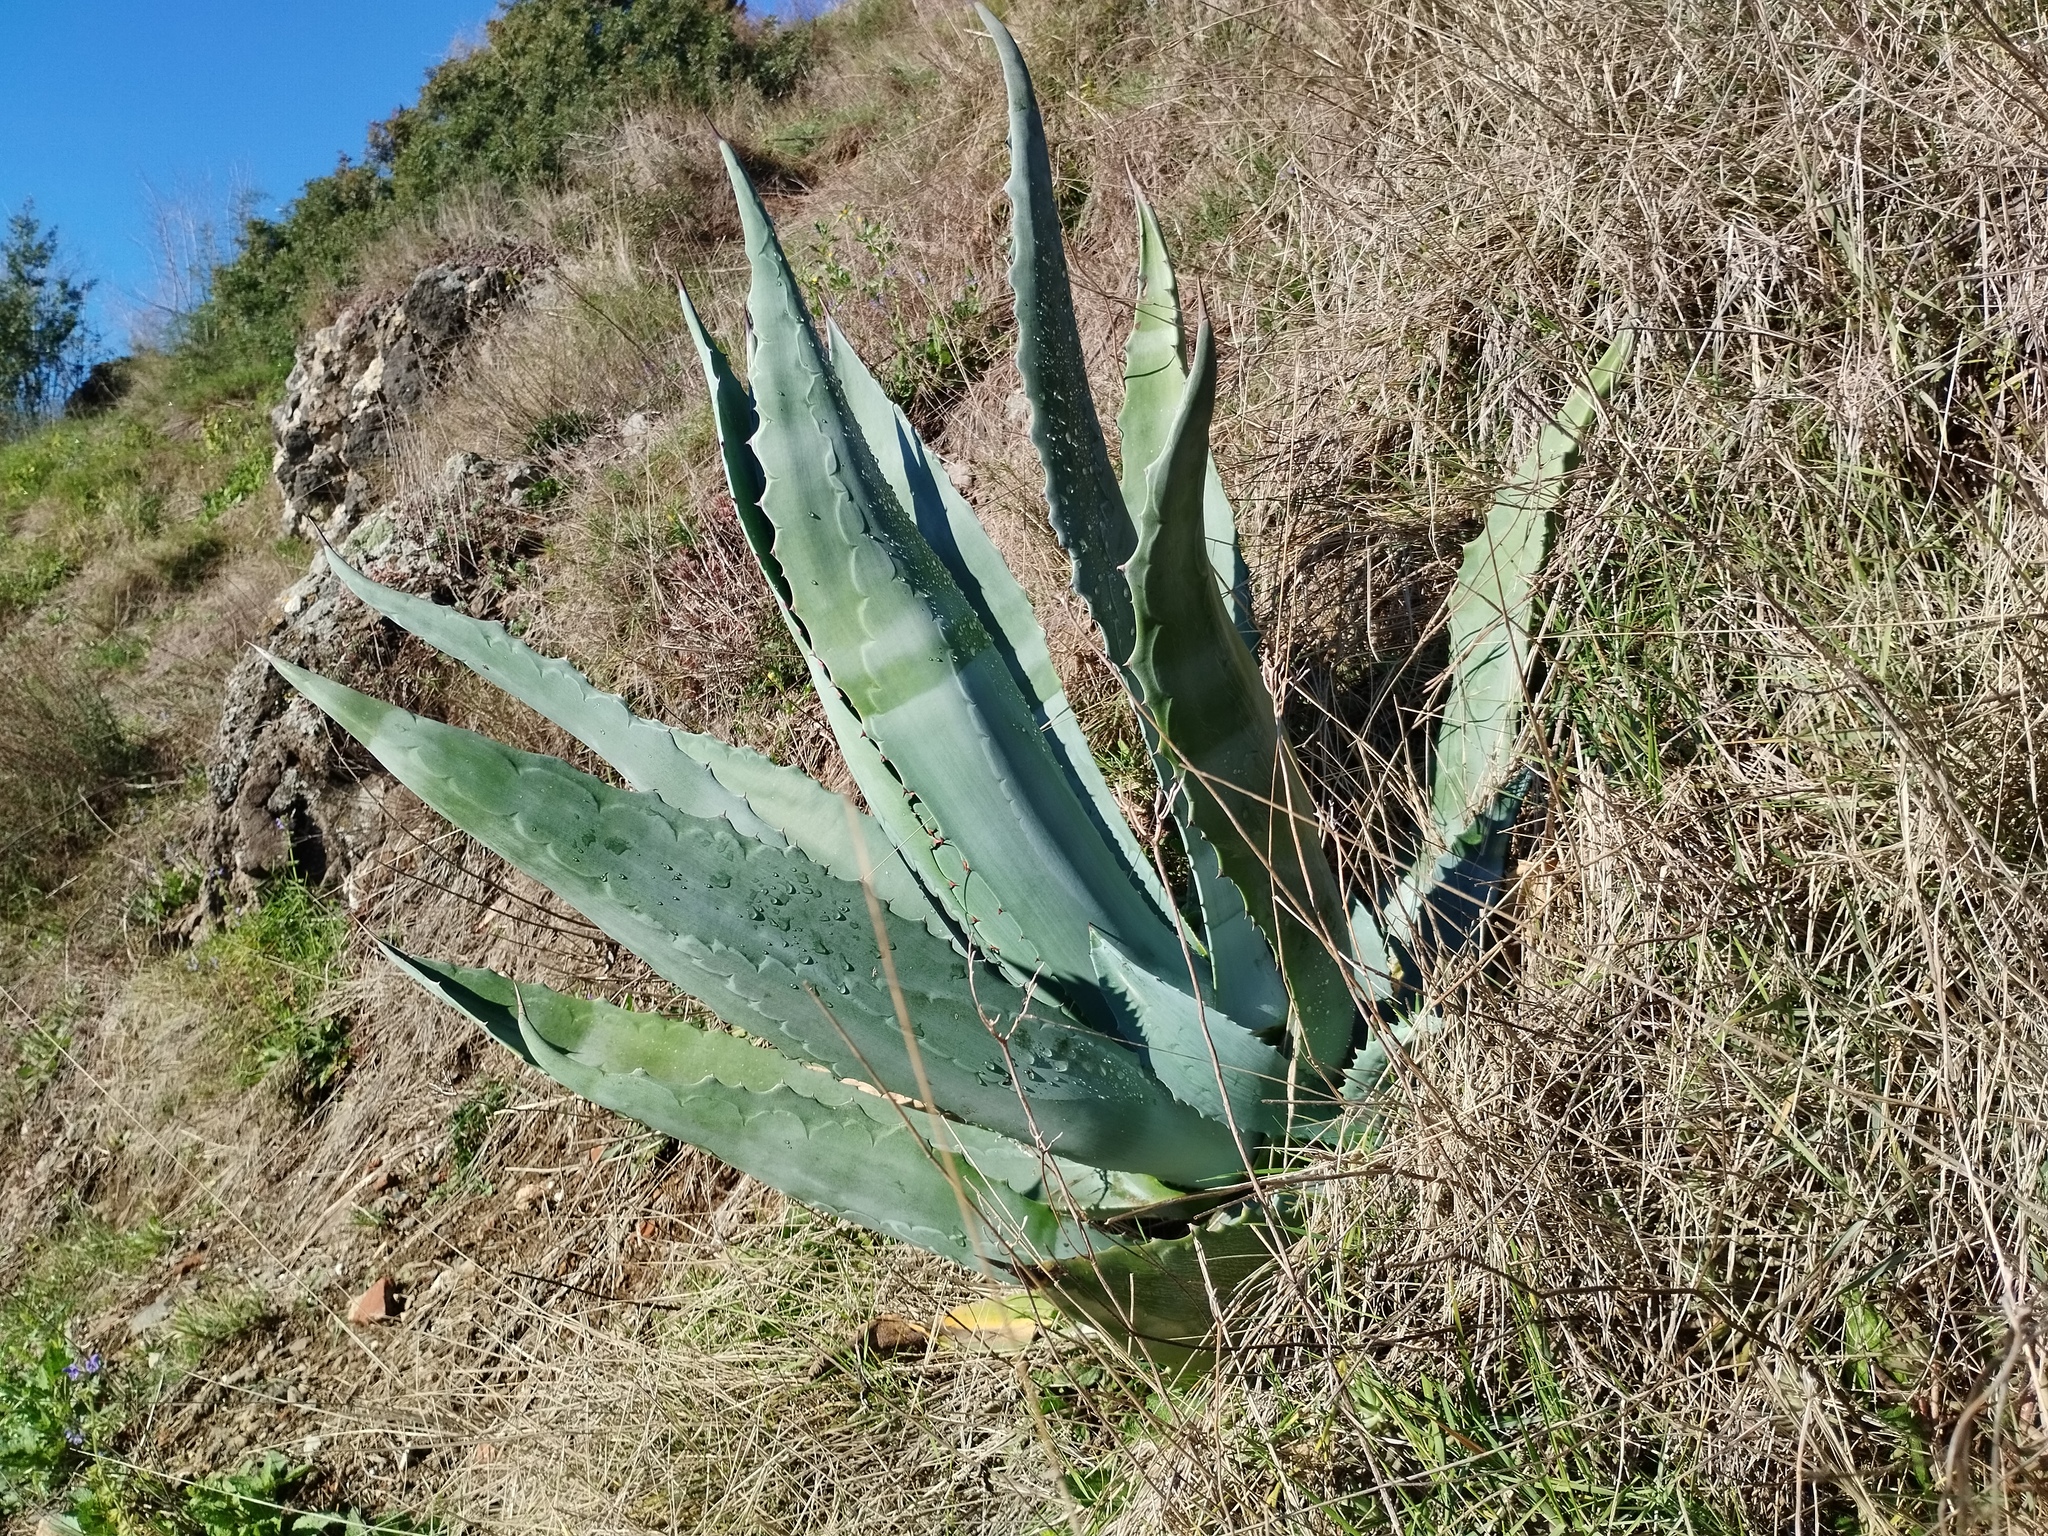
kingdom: Plantae
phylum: Tracheophyta
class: Liliopsida
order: Asparagales
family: Asparagaceae
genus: Agave
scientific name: Agave americana
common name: Centuryplant
